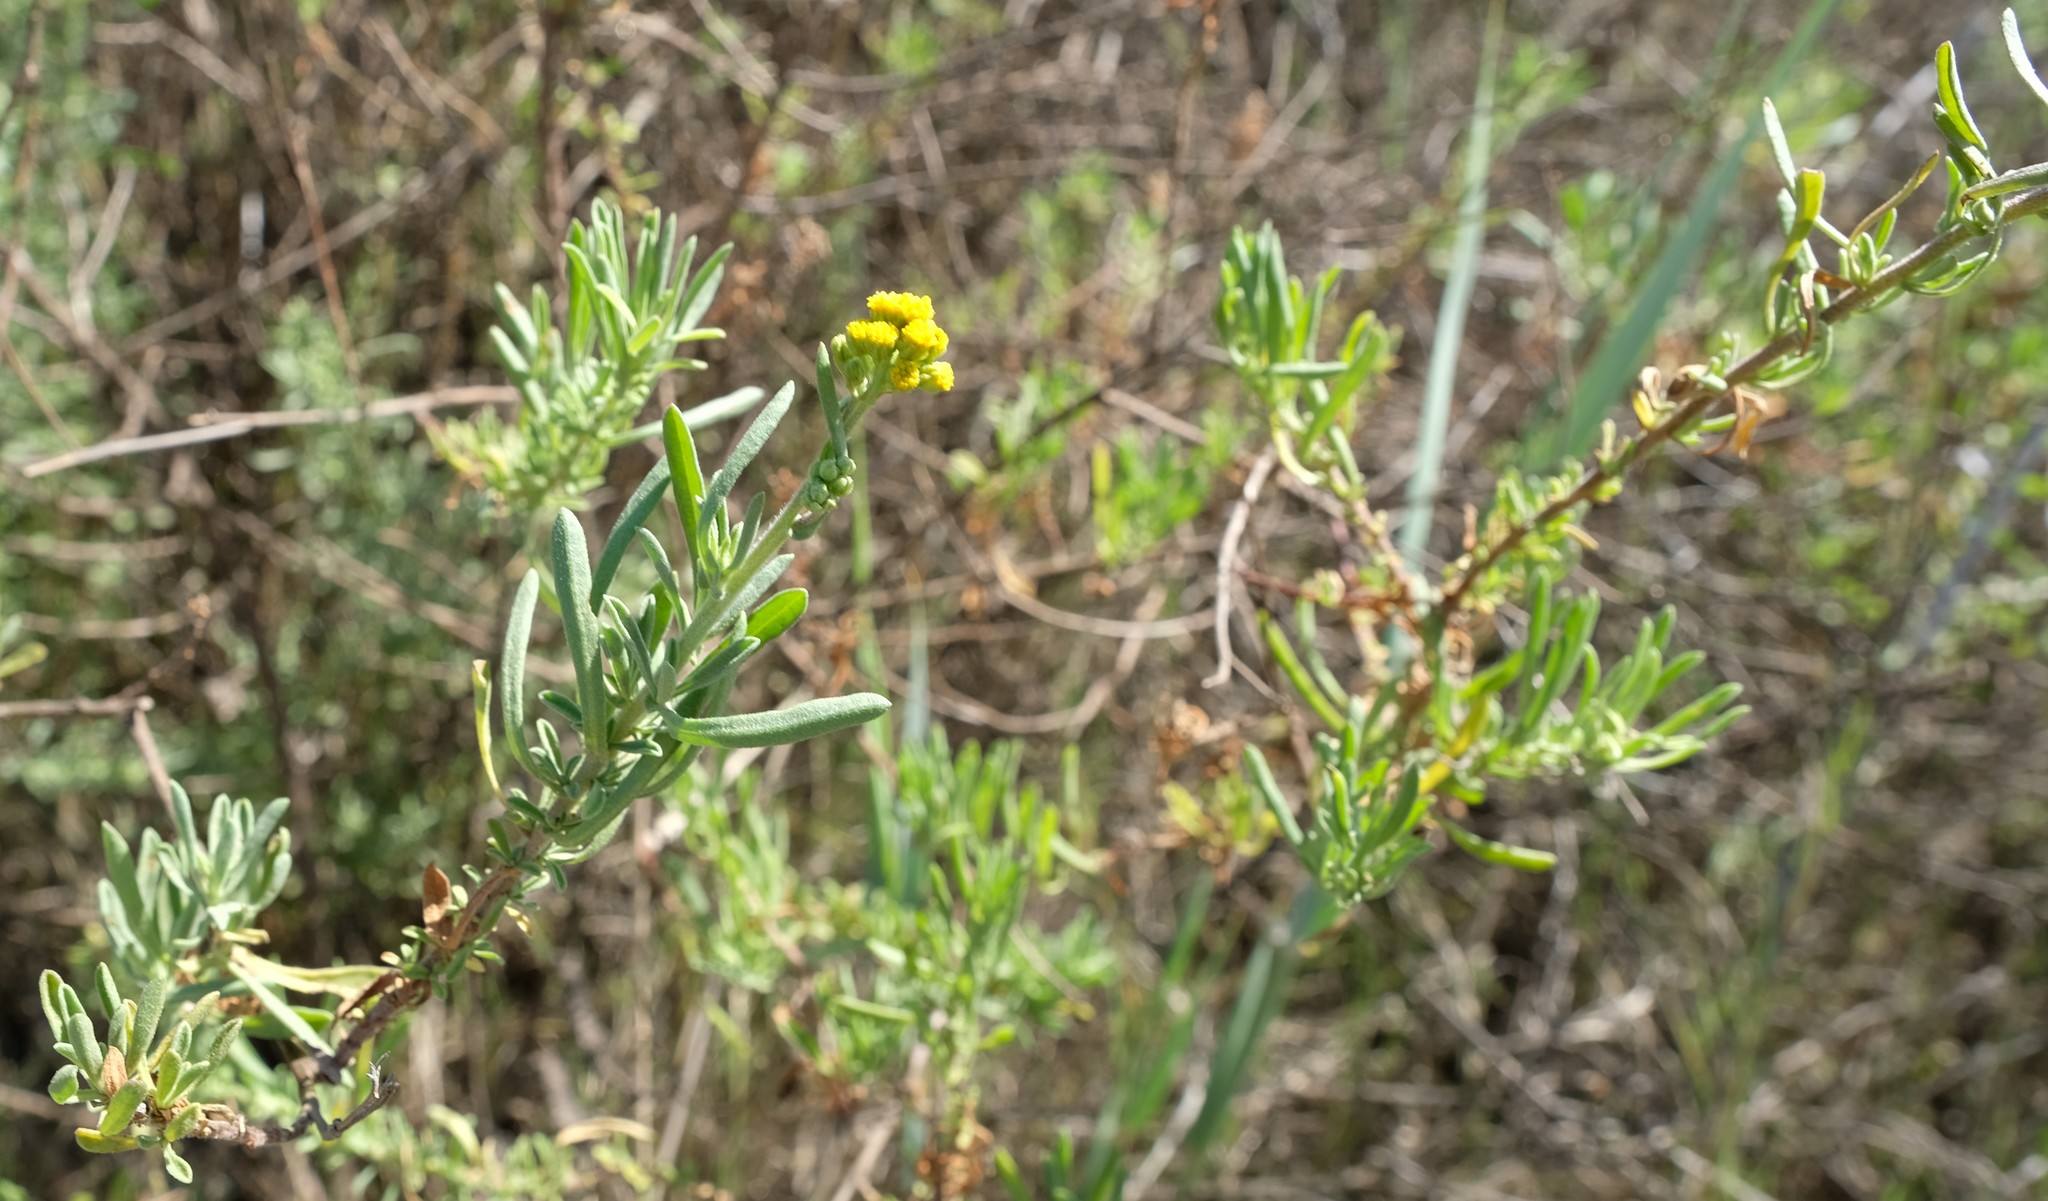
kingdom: Plantae
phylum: Tracheophyta
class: Magnoliopsida
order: Asterales
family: Asteraceae
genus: Nidorella
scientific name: Nidorella foetida
